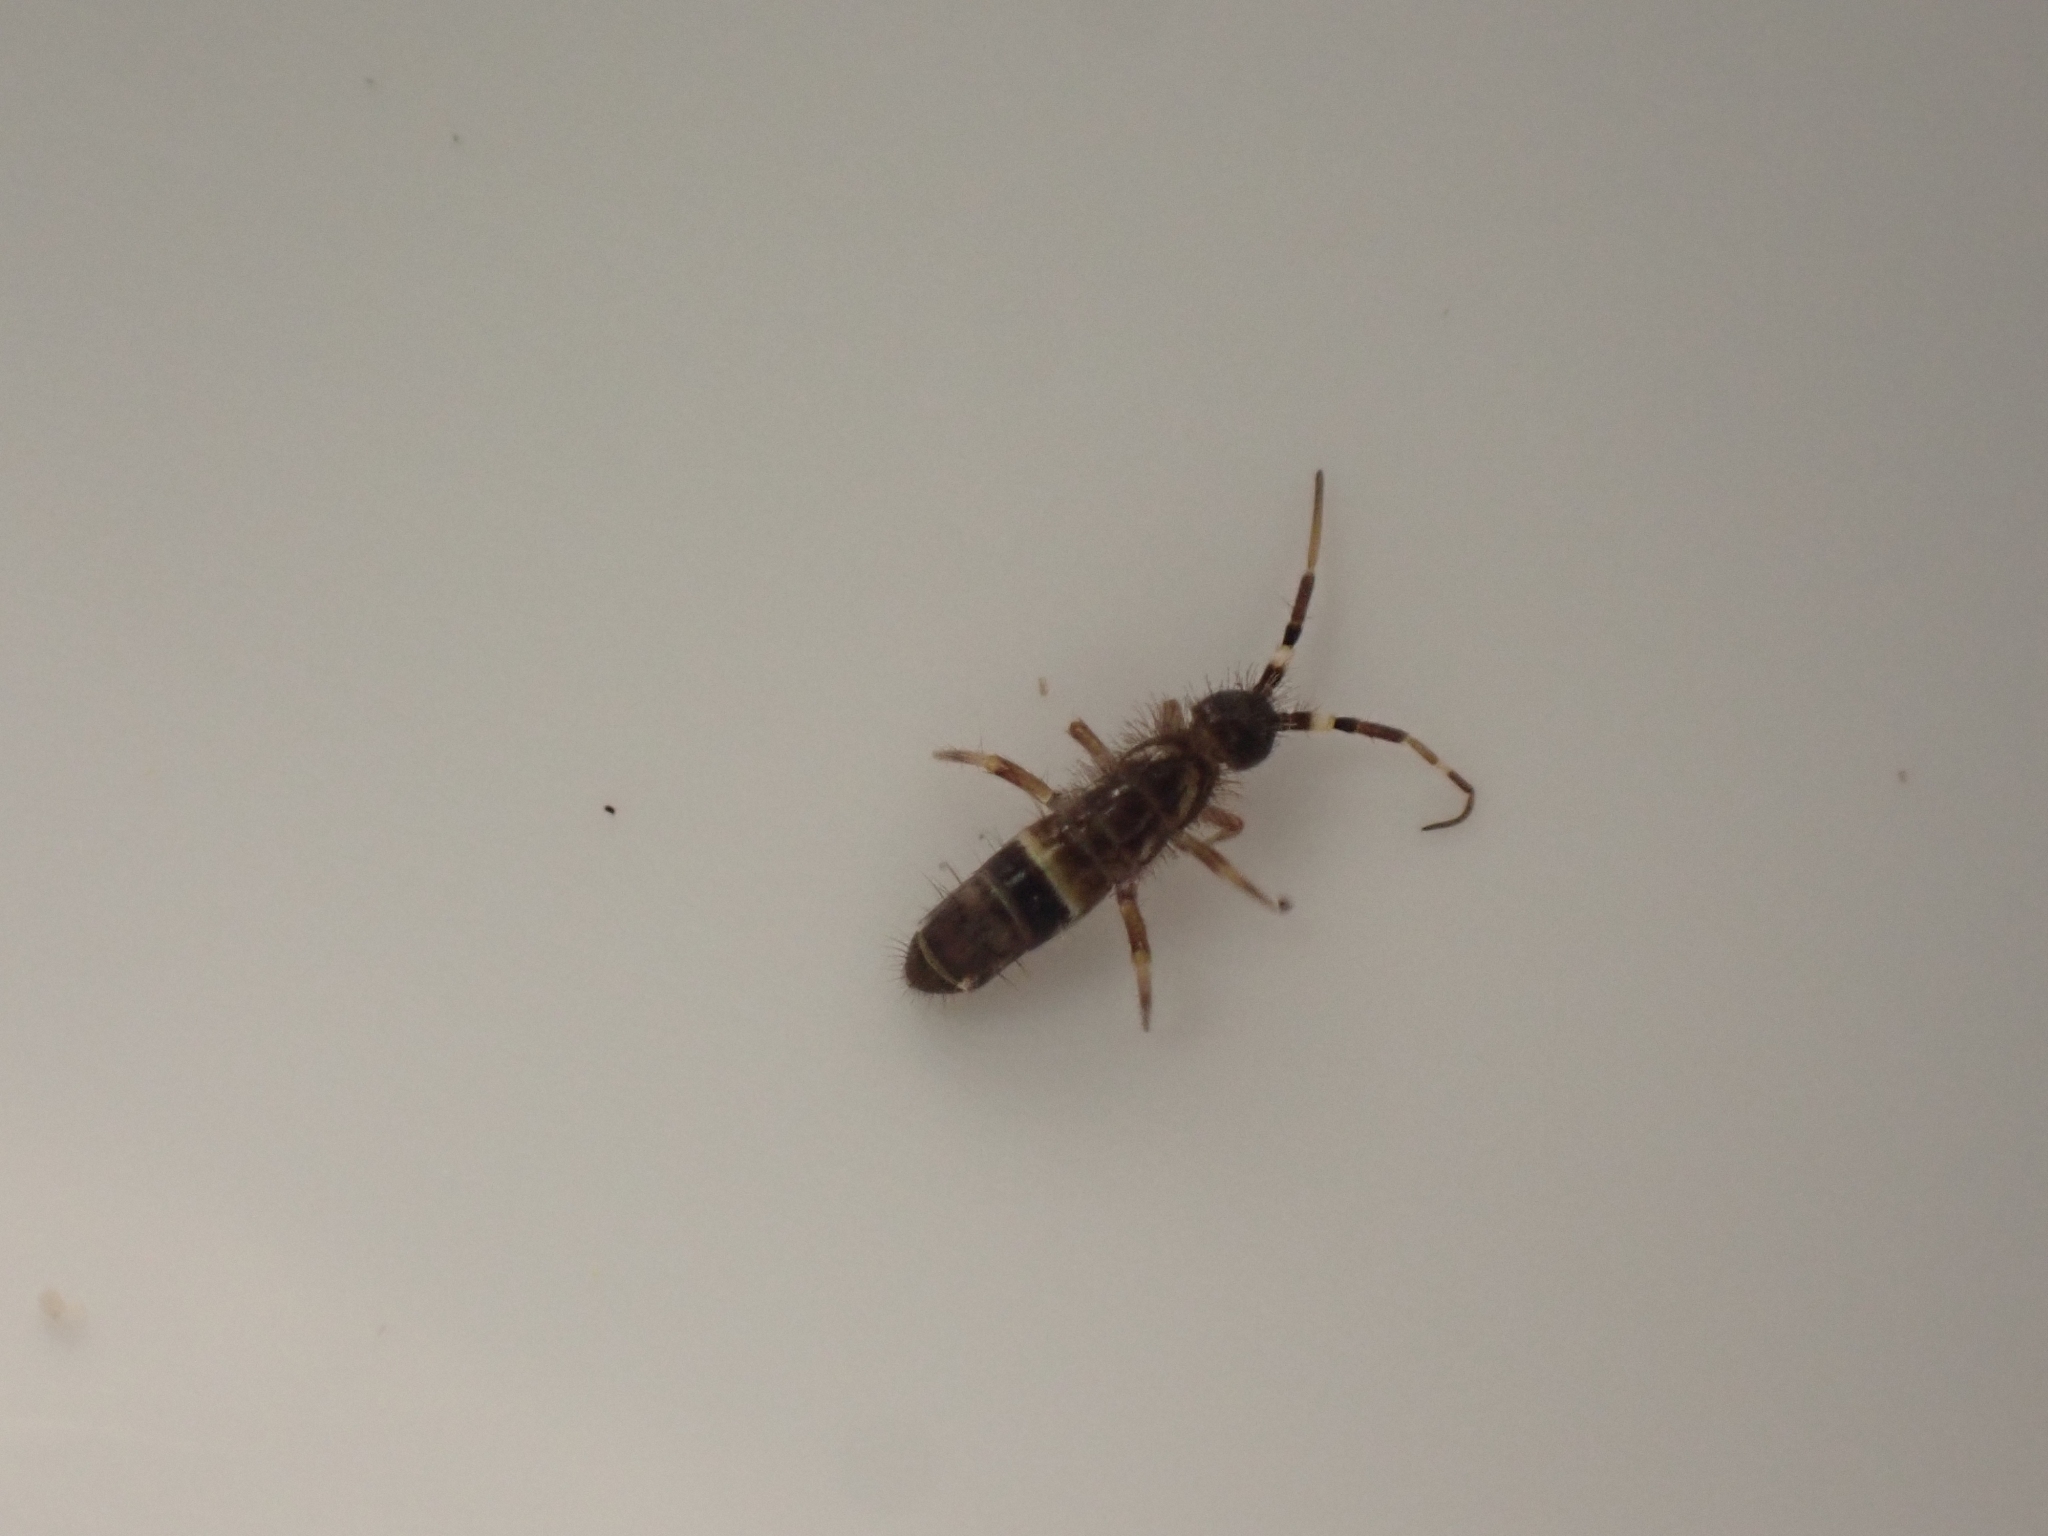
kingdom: Animalia
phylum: Arthropoda
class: Collembola
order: Entomobryomorpha
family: Orchesellidae
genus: Orchesella
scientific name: Orchesella cincta
